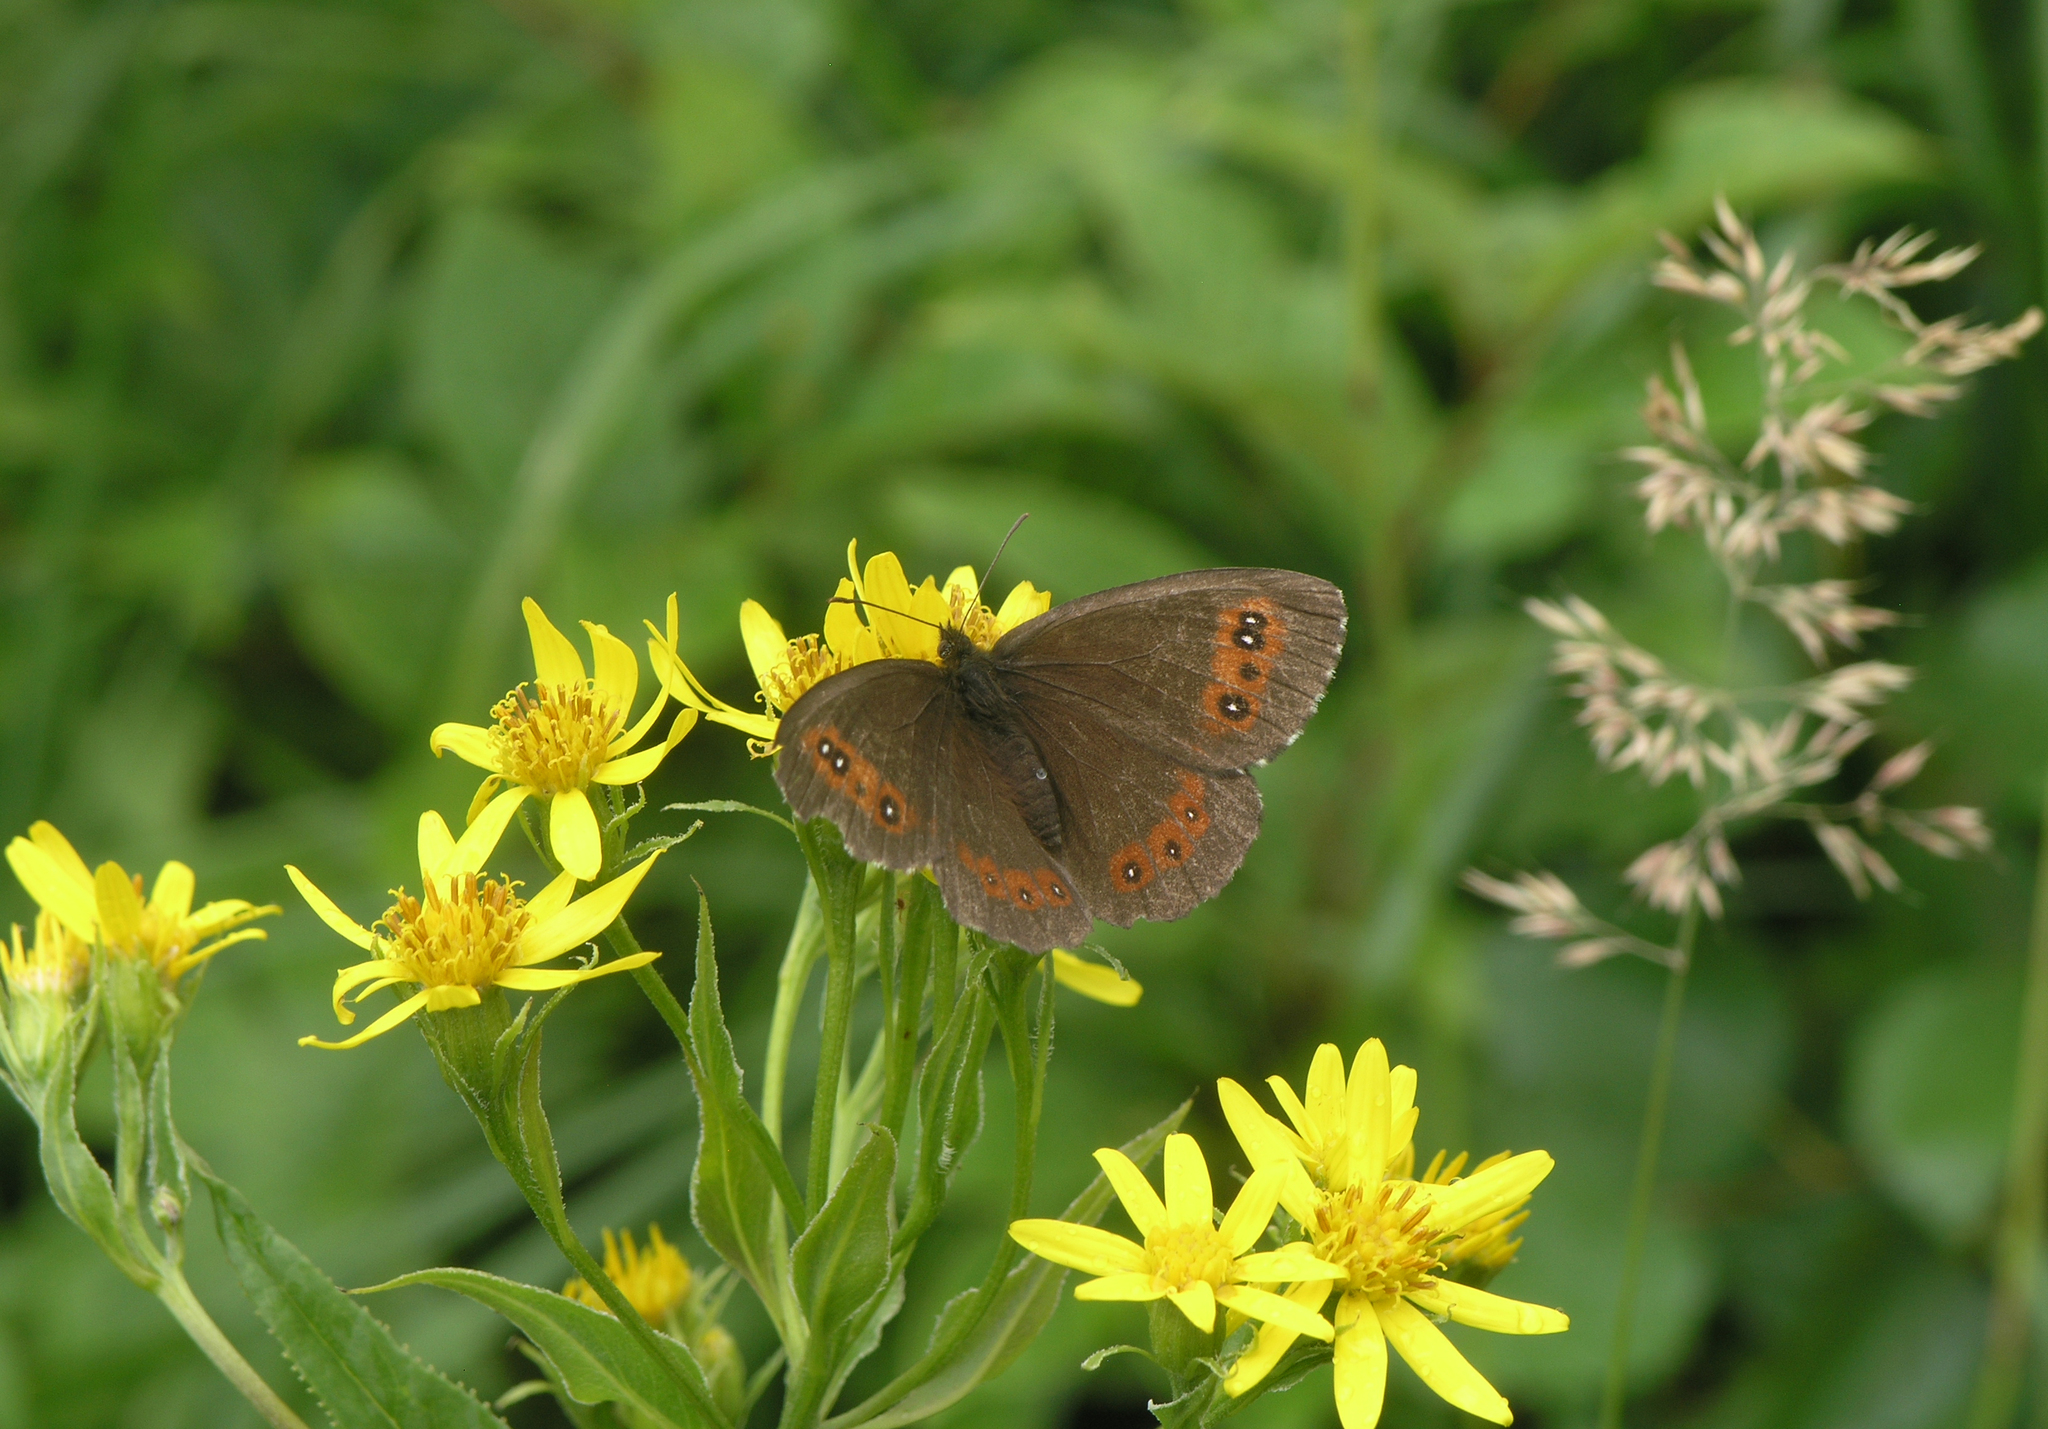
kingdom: Animalia
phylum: Arthropoda
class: Insecta
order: Lepidoptera
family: Nymphalidae
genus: Erebia
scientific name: Erebia ligea
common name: Arran brown
